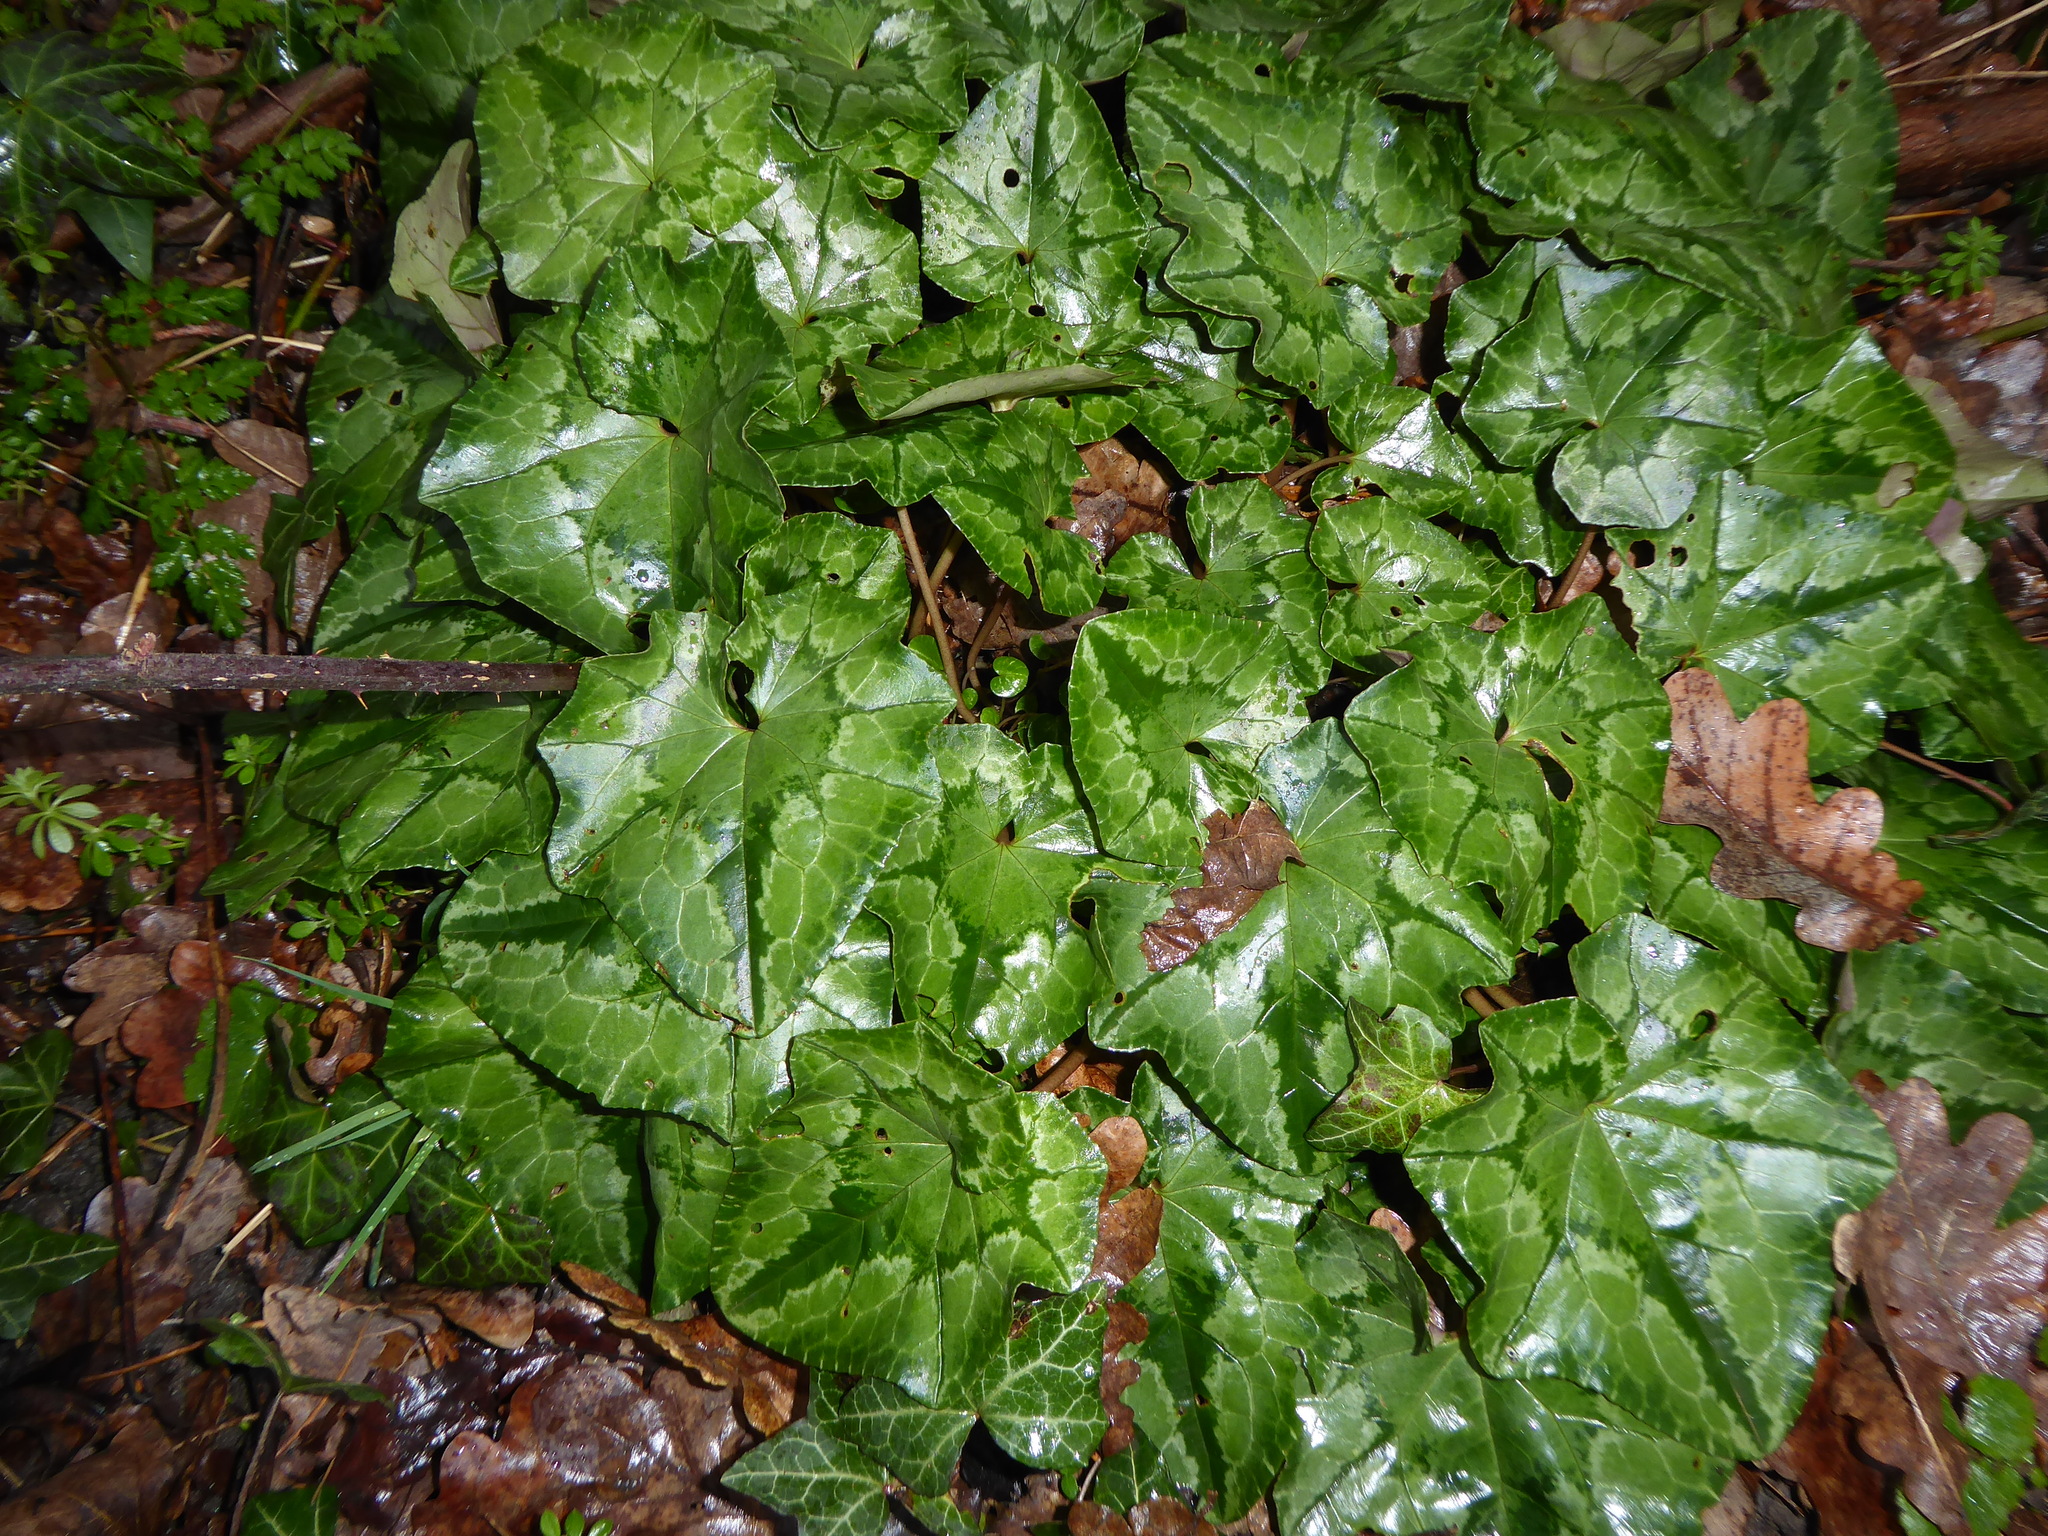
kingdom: Plantae
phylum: Tracheophyta
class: Magnoliopsida
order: Ericales
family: Primulaceae
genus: Cyclamen
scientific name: Cyclamen hederifolium
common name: Sowbread
